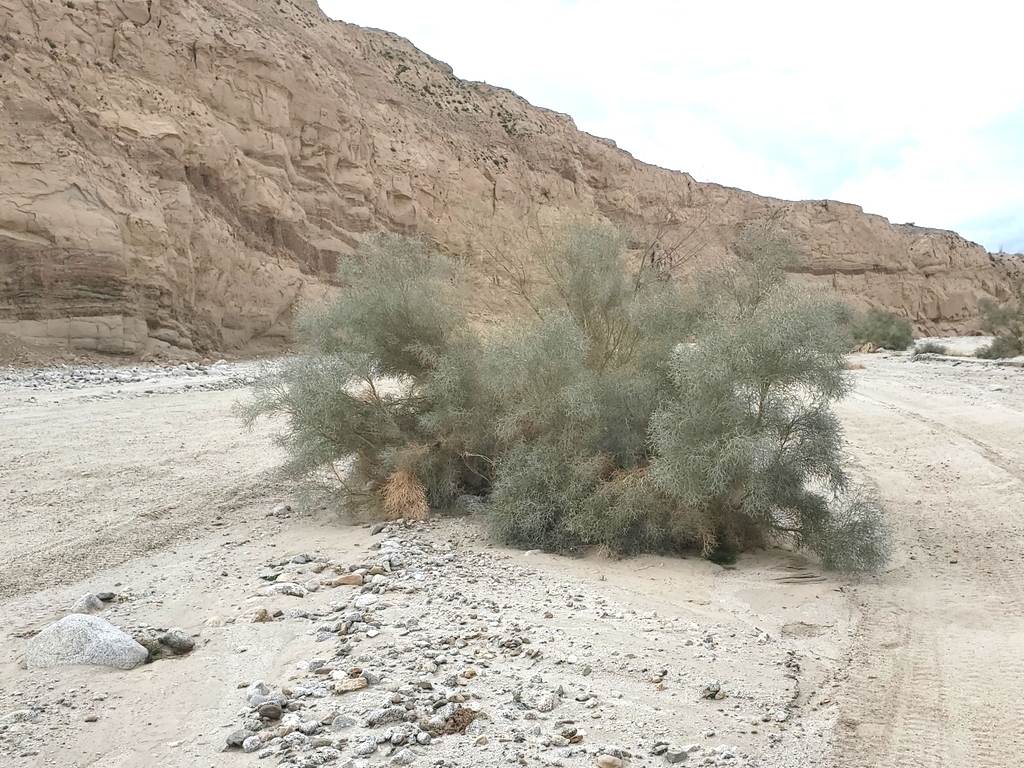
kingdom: Plantae
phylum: Tracheophyta
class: Magnoliopsida
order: Fabales
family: Fabaceae
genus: Psorothamnus
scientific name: Psorothamnus spinosus
